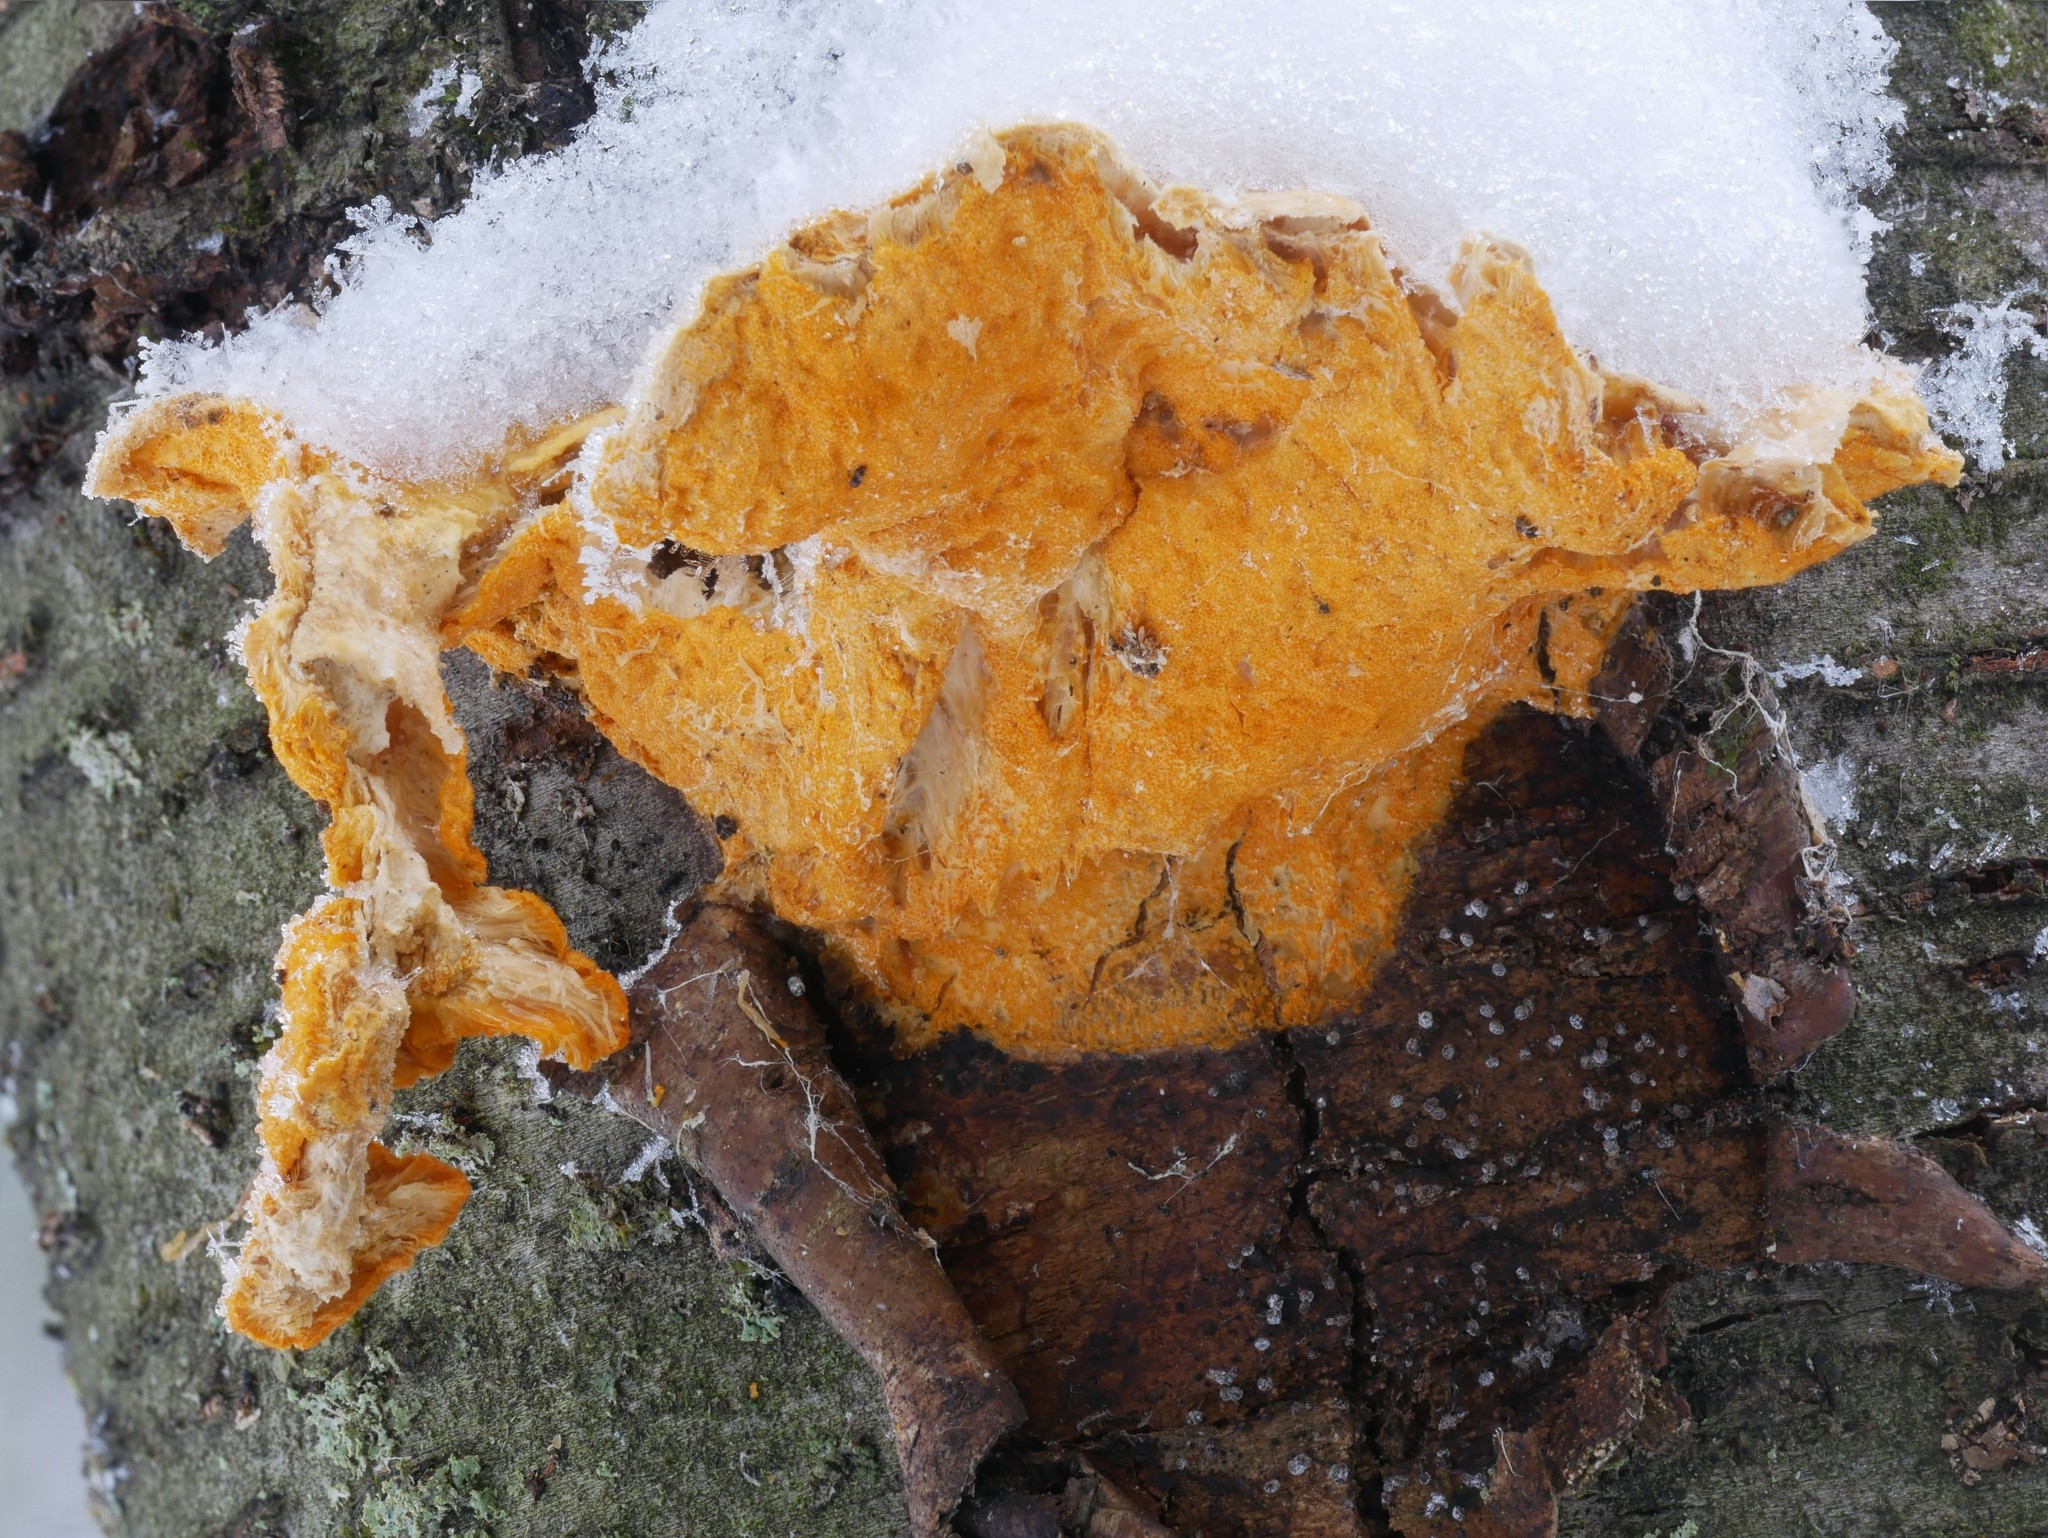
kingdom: Fungi
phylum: Ascomycota
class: Sordariomycetes
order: Hypocreales
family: Hypocreaceae
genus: Protocrea
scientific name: Protocrea pallida
